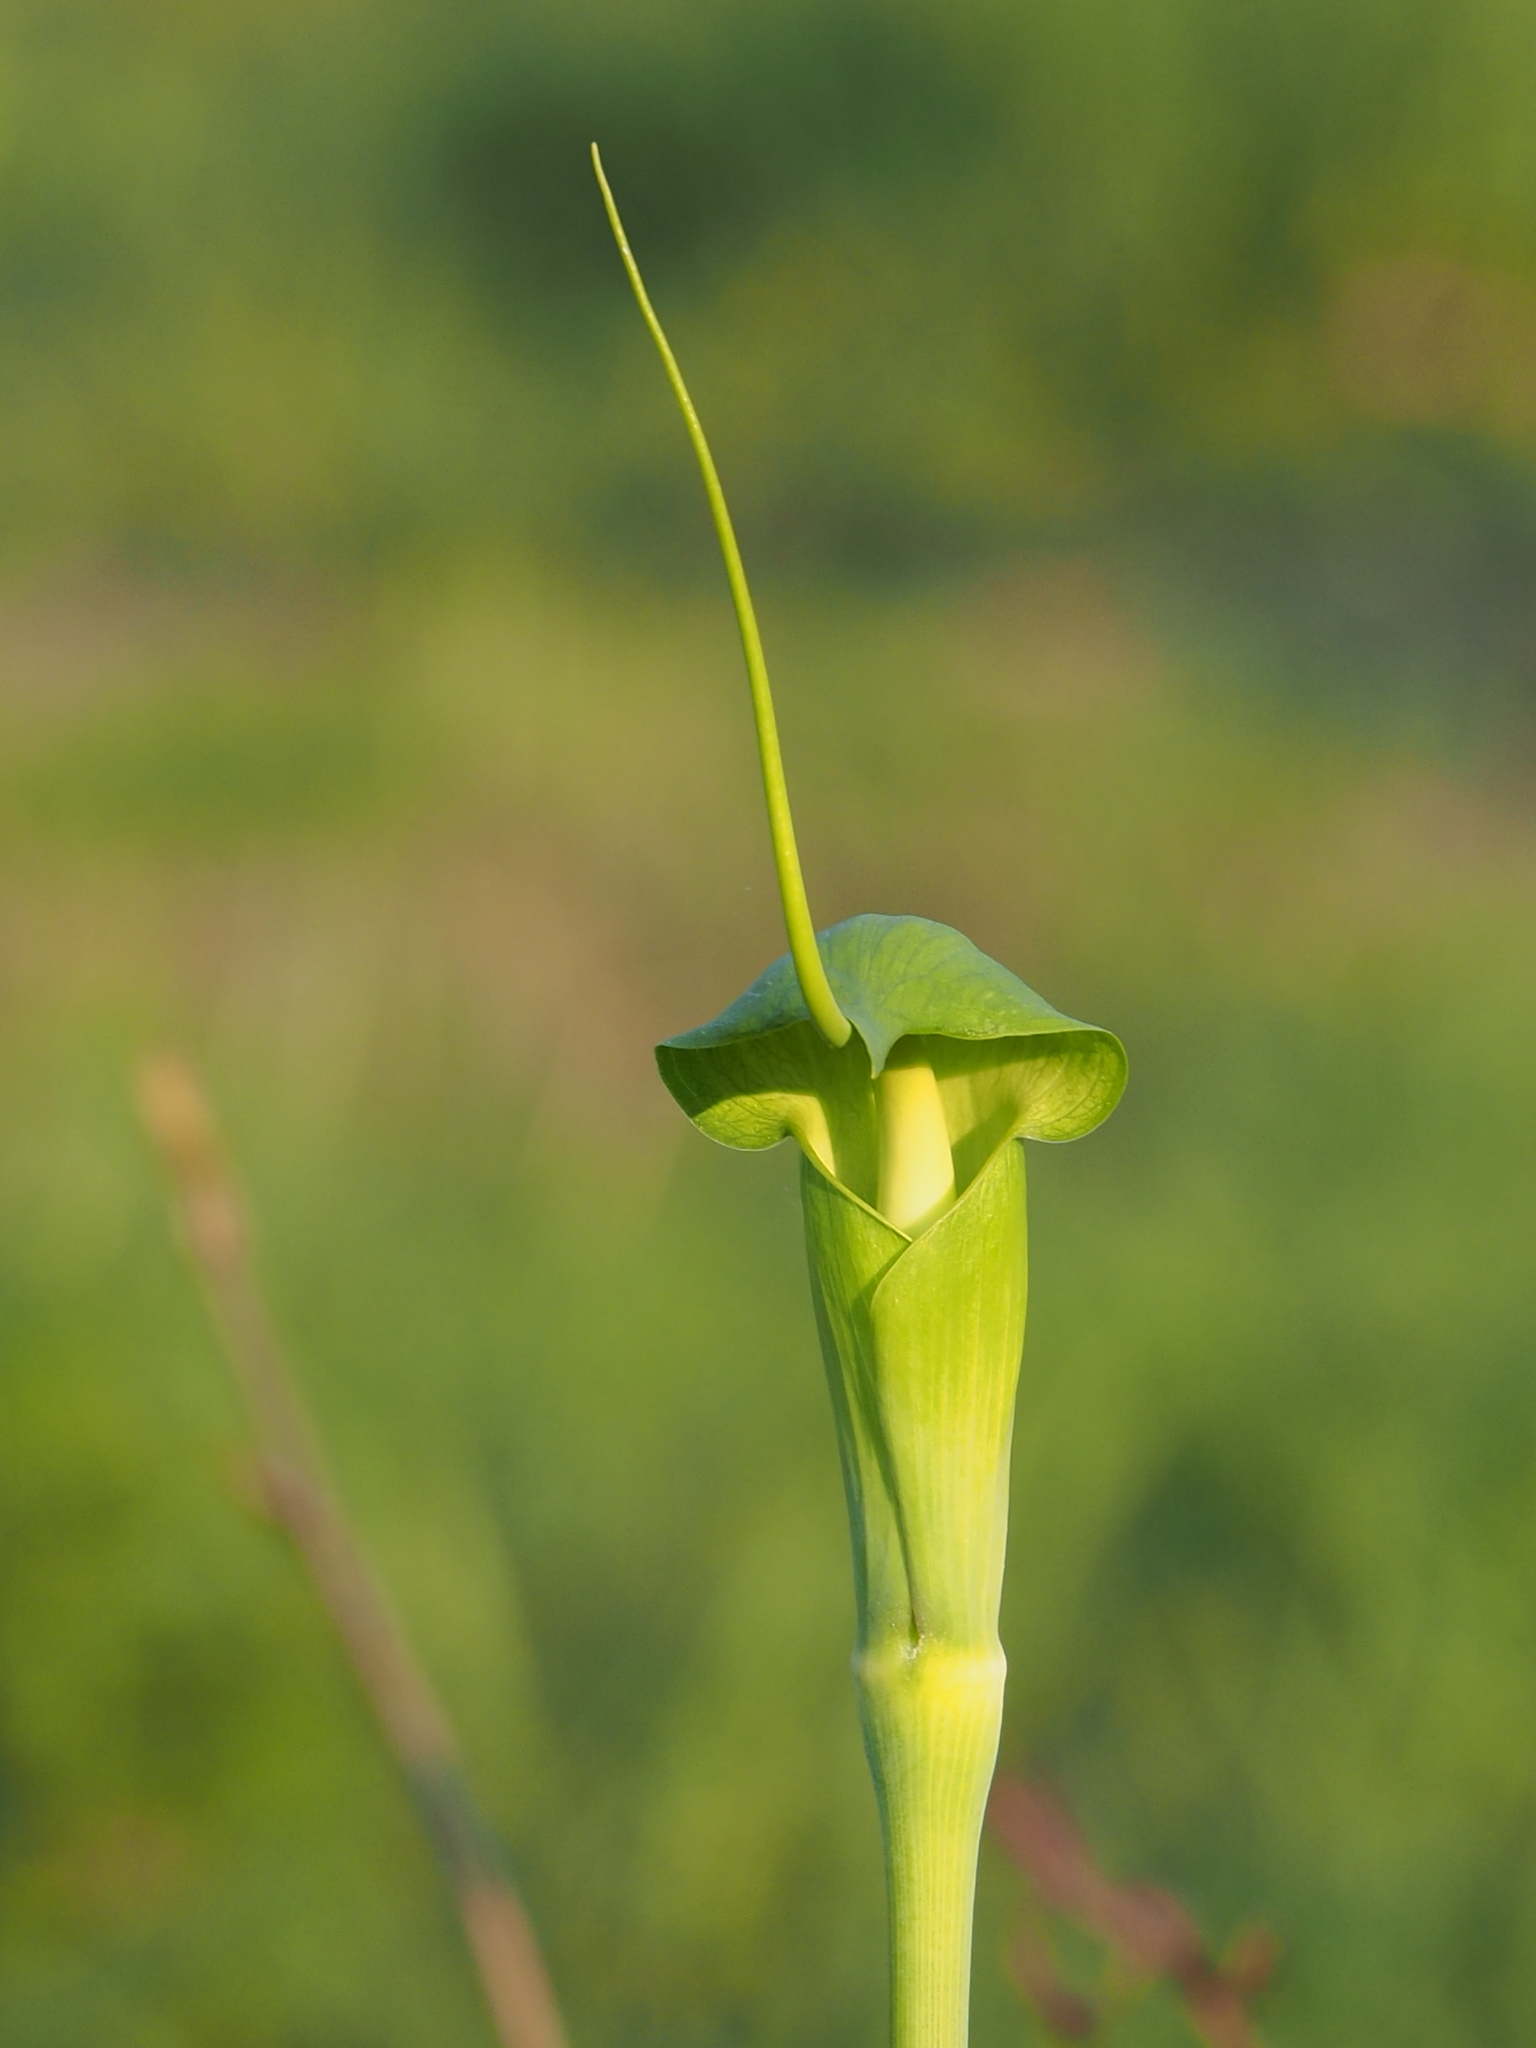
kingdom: Plantae
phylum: Tracheophyta
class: Liliopsida
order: Alismatales
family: Araceae
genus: Arisaema
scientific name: Arisaema heterophyllum
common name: Dancing crane cobra lily
